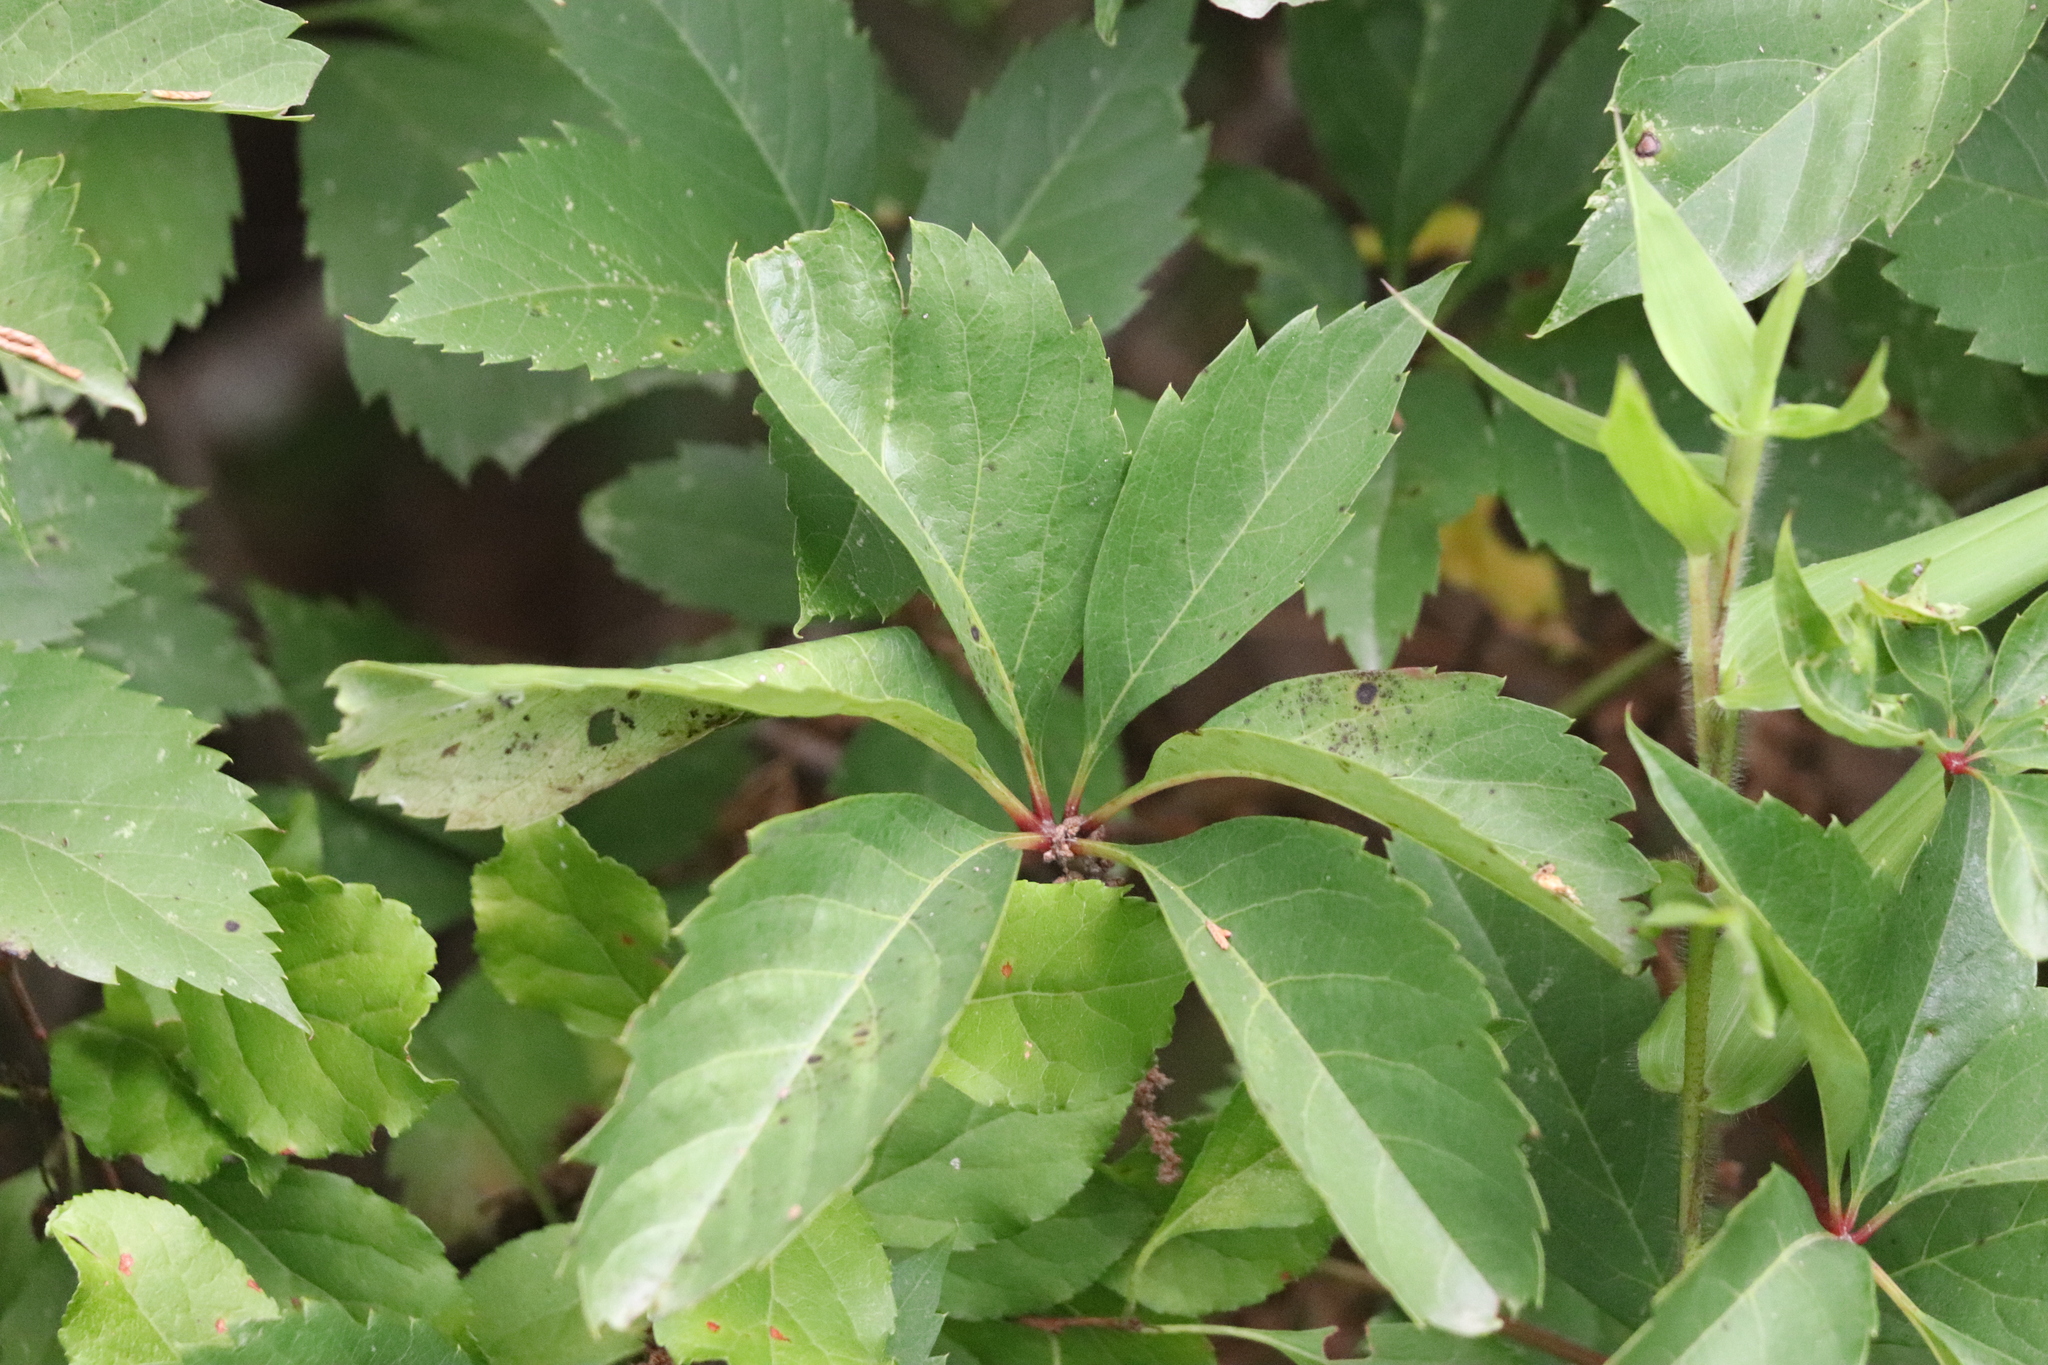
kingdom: Plantae
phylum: Tracheophyta
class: Magnoliopsida
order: Vitales
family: Vitaceae
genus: Parthenocissus
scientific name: Parthenocissus quinquefolia
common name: Virginia-creeper
